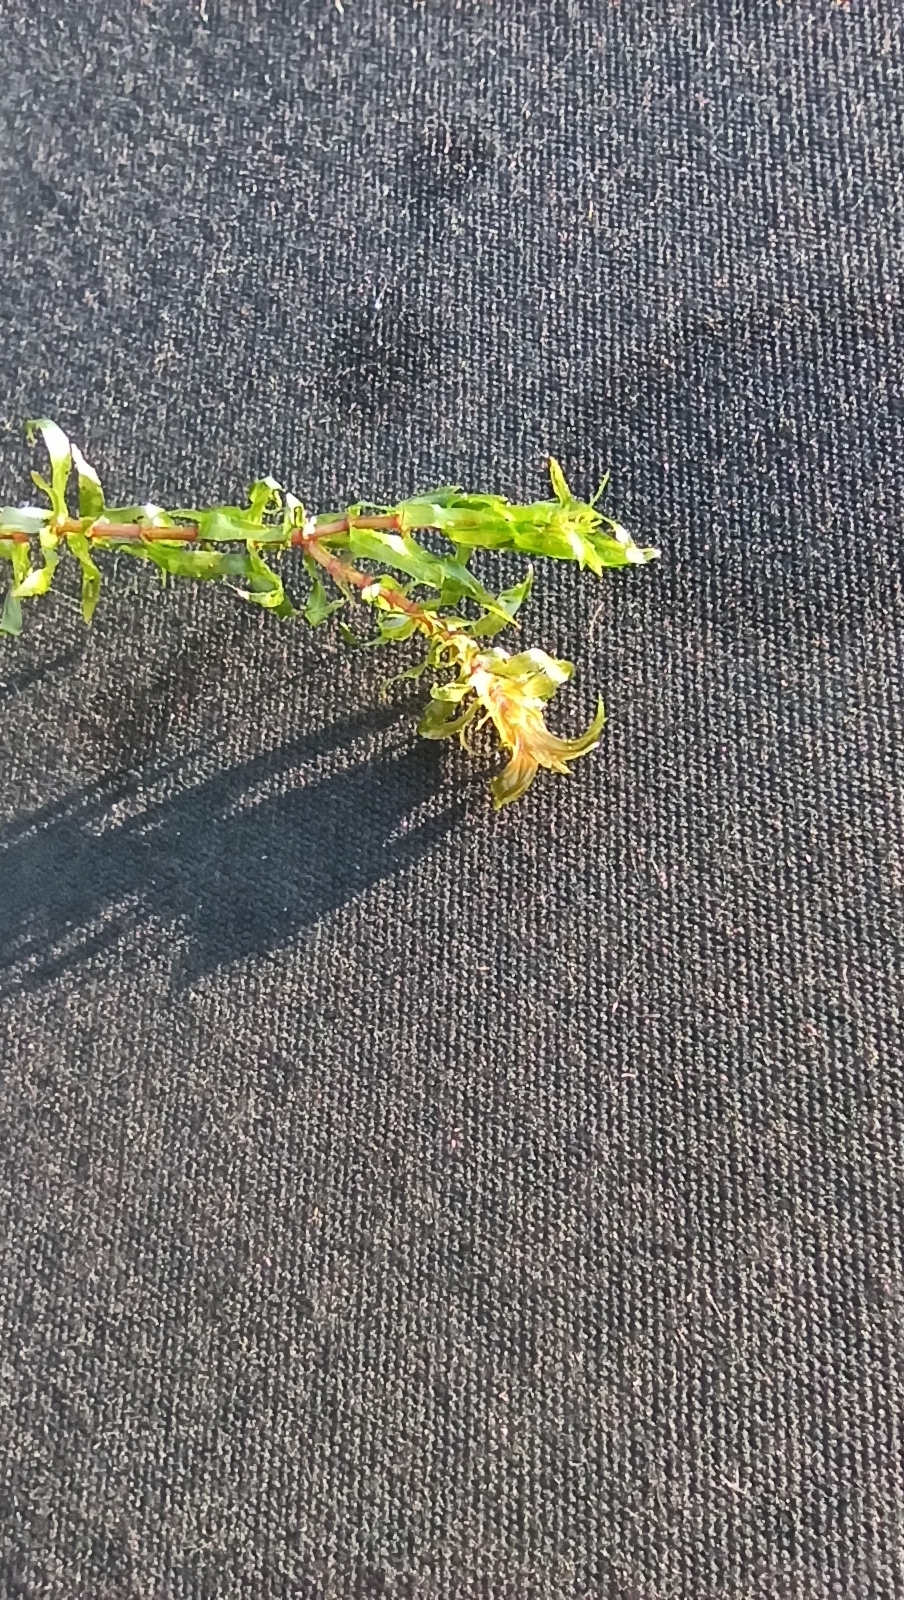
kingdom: Plantae
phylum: Tracheophyta
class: Liliopsida
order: Alismatales
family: Hydrocharitaceae
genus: Elodea
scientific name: Elodea canadensis
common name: Canadian waterweed
